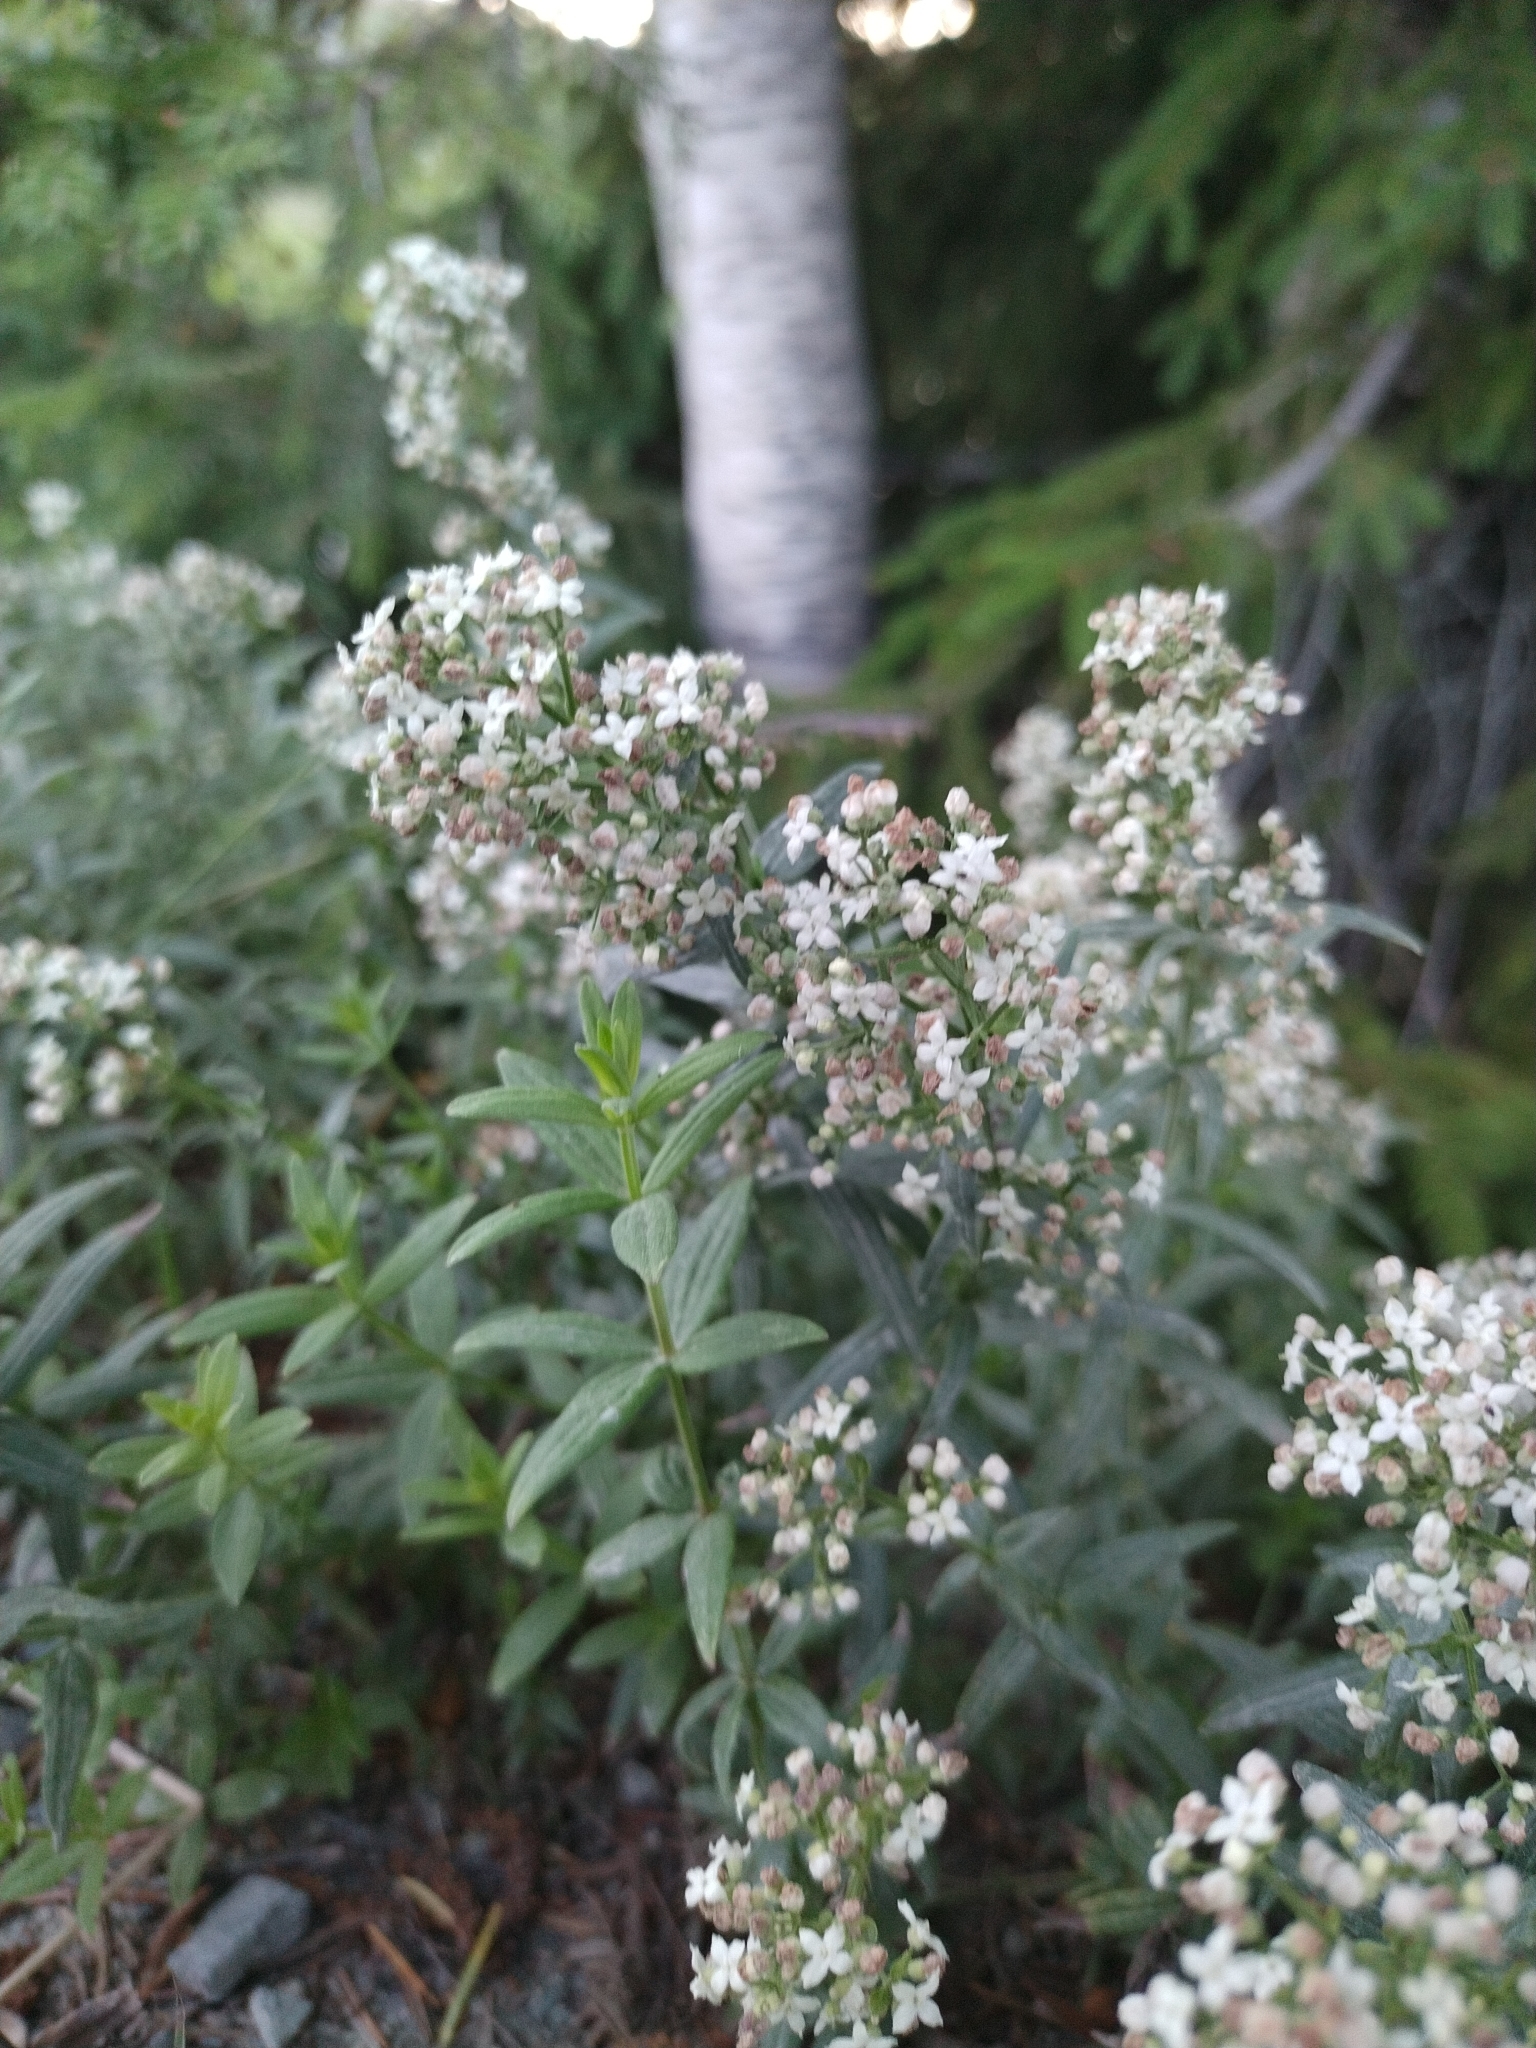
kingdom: Plantae
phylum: Tracheophyta
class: Magnoliopsida
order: Gentianales
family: Rubiaceae
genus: Galium
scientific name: Galium boreale
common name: Northern bedstraw
